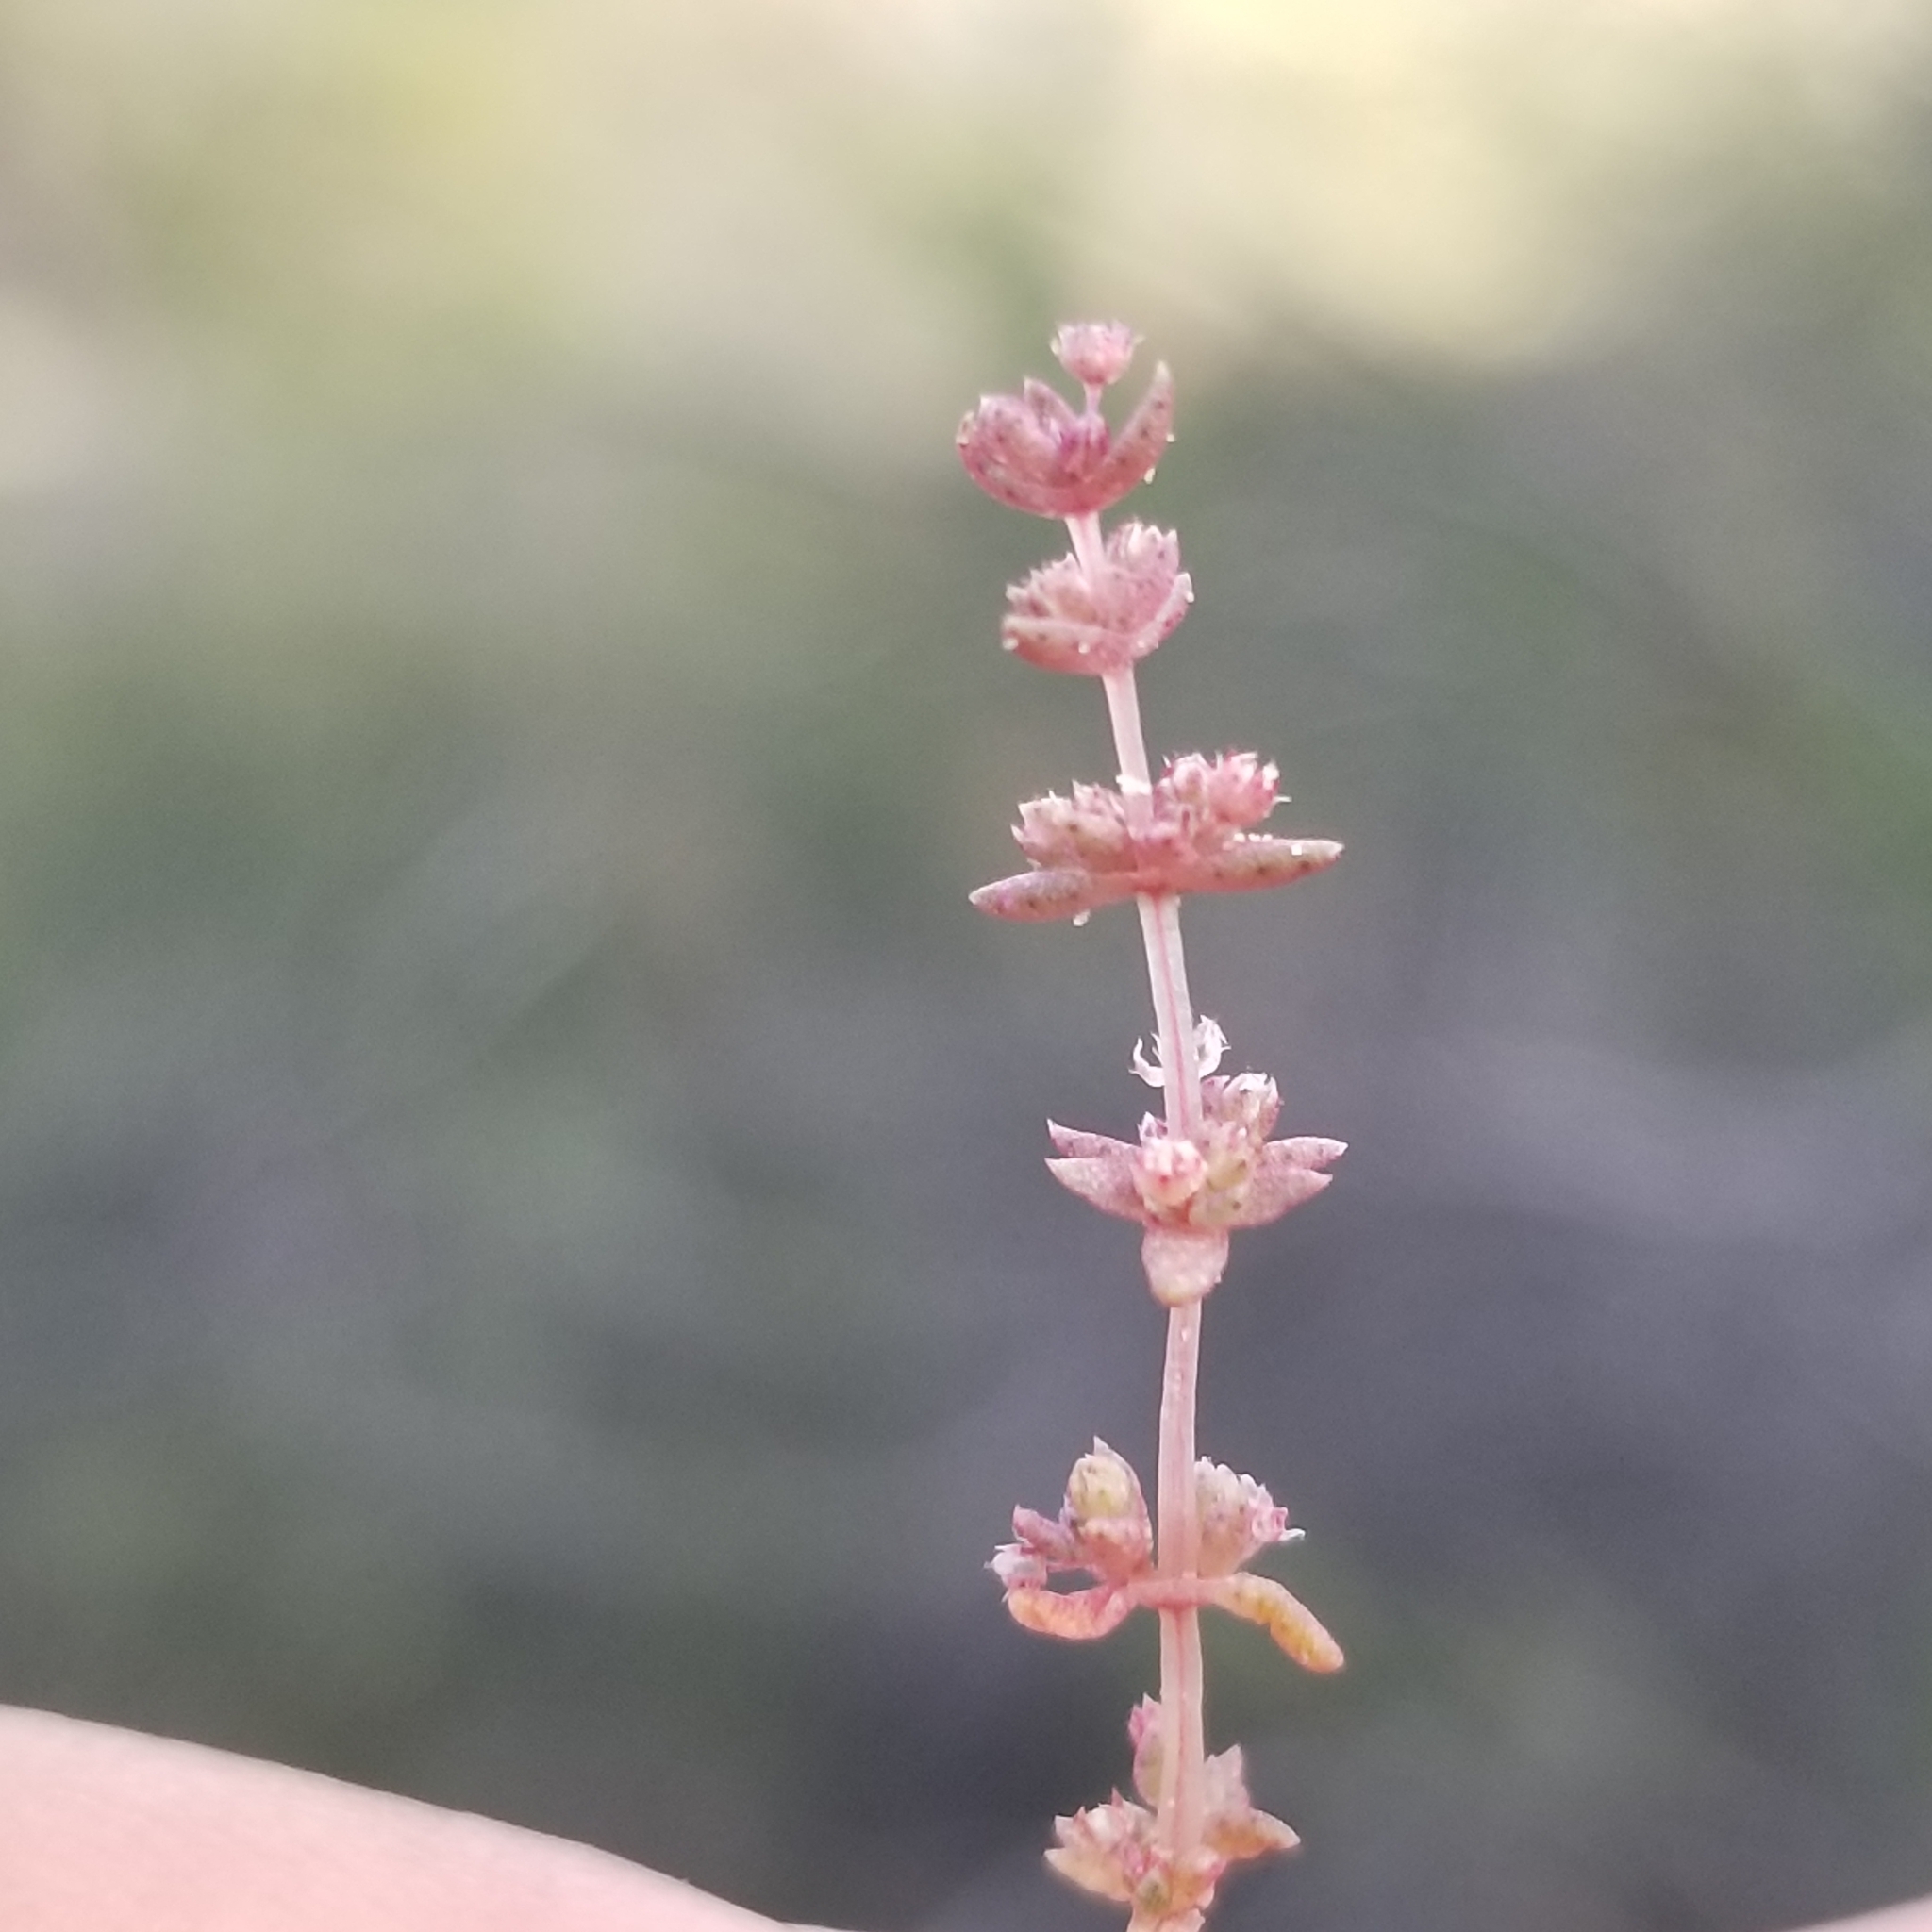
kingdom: Plantae
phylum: Tracheophyta
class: Magnoliopsida
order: Saxifragales
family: Crassulaceae
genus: Crassula
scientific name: Crassula connata
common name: Erect pygmyweed
